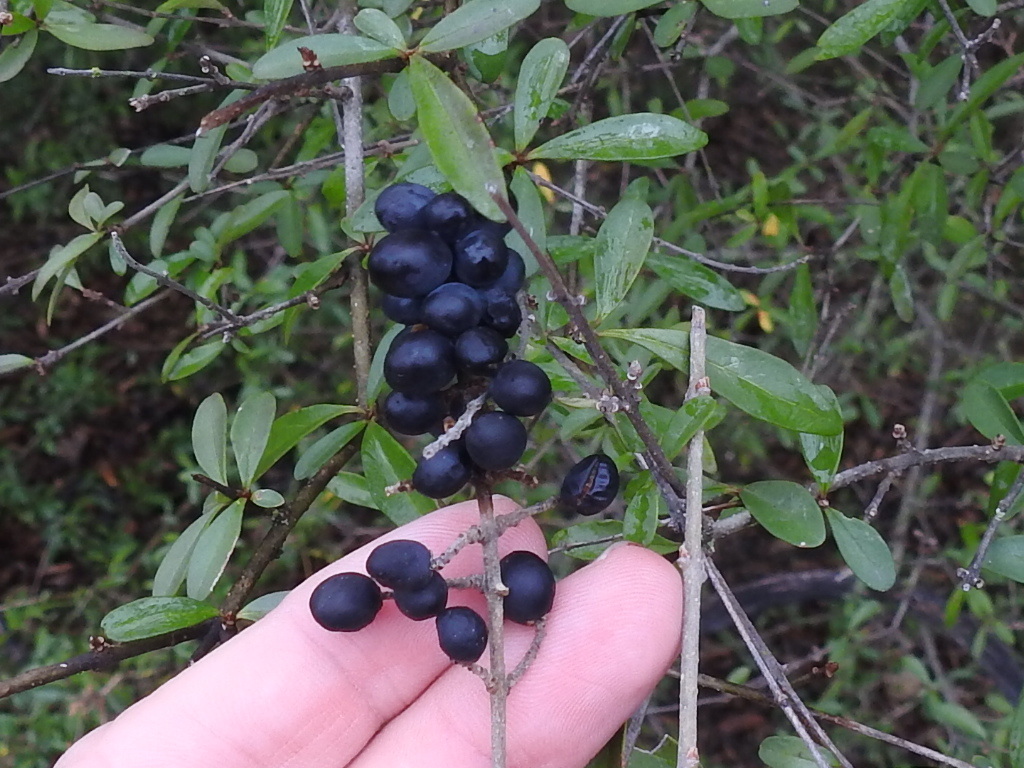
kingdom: Plantae
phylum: Tracheophyta
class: Magnoliopsida
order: Lamiales
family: Oleaceae
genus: Ligustrum
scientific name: Ligustrum quihoui
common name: Waxyleaf privet
